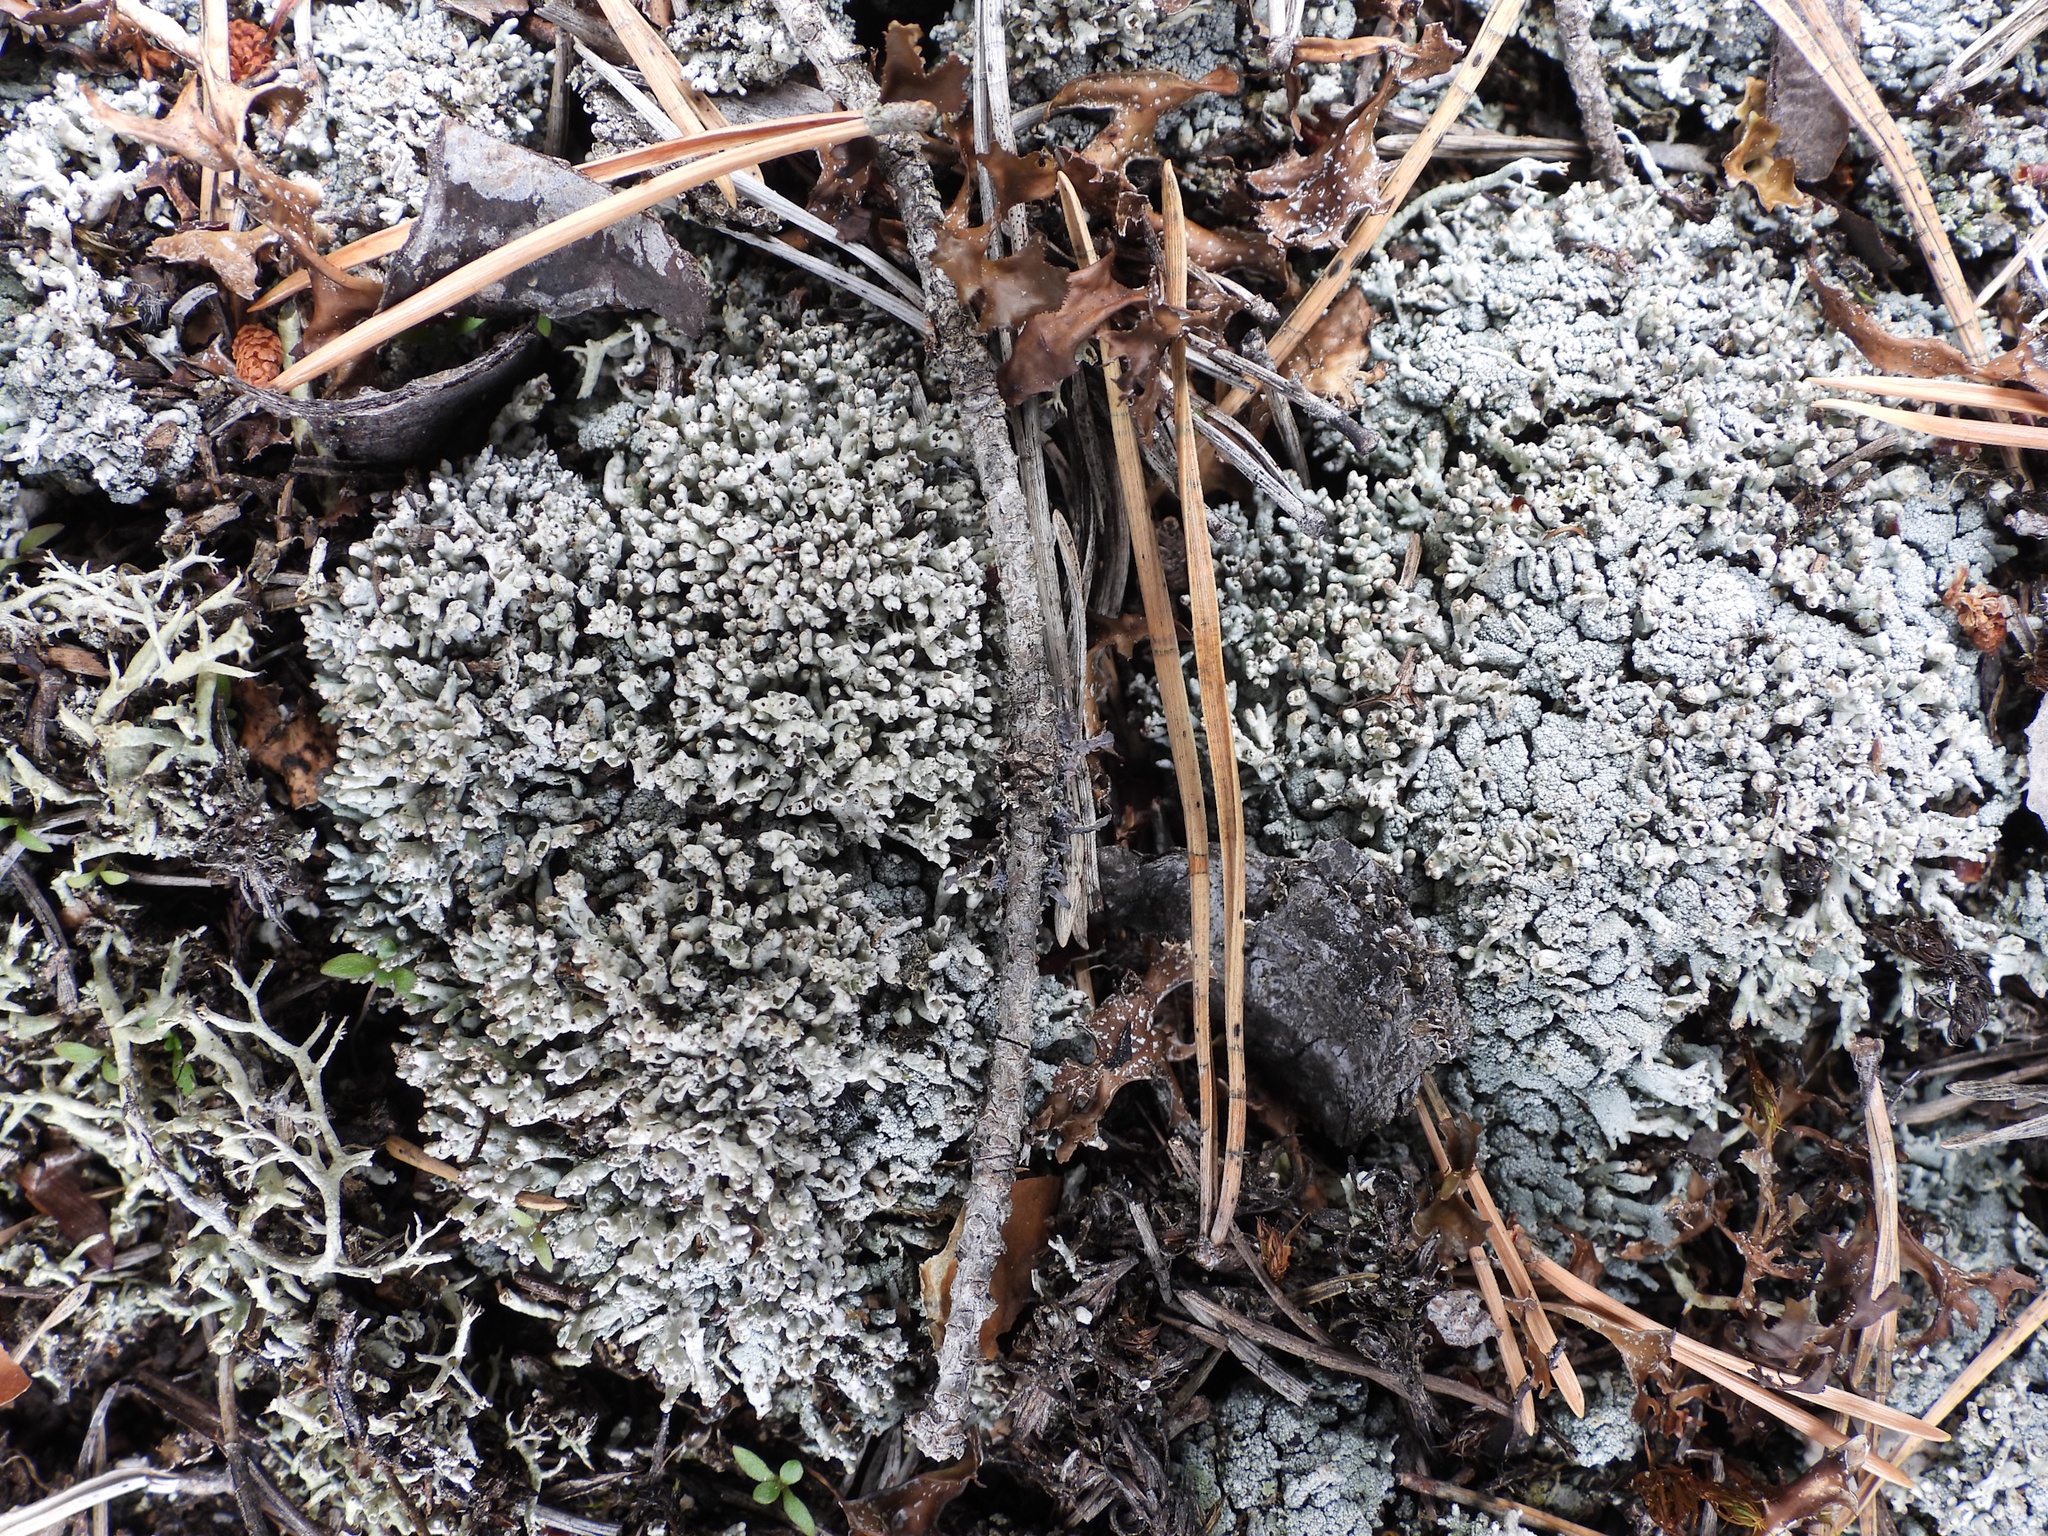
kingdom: Fungi
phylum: Ascomycota
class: Lecanoromycetes
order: Lecanorales
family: Cladoniaceae
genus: Pycnothelia
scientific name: Pycnothelia papillaria
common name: Nipple lichen
